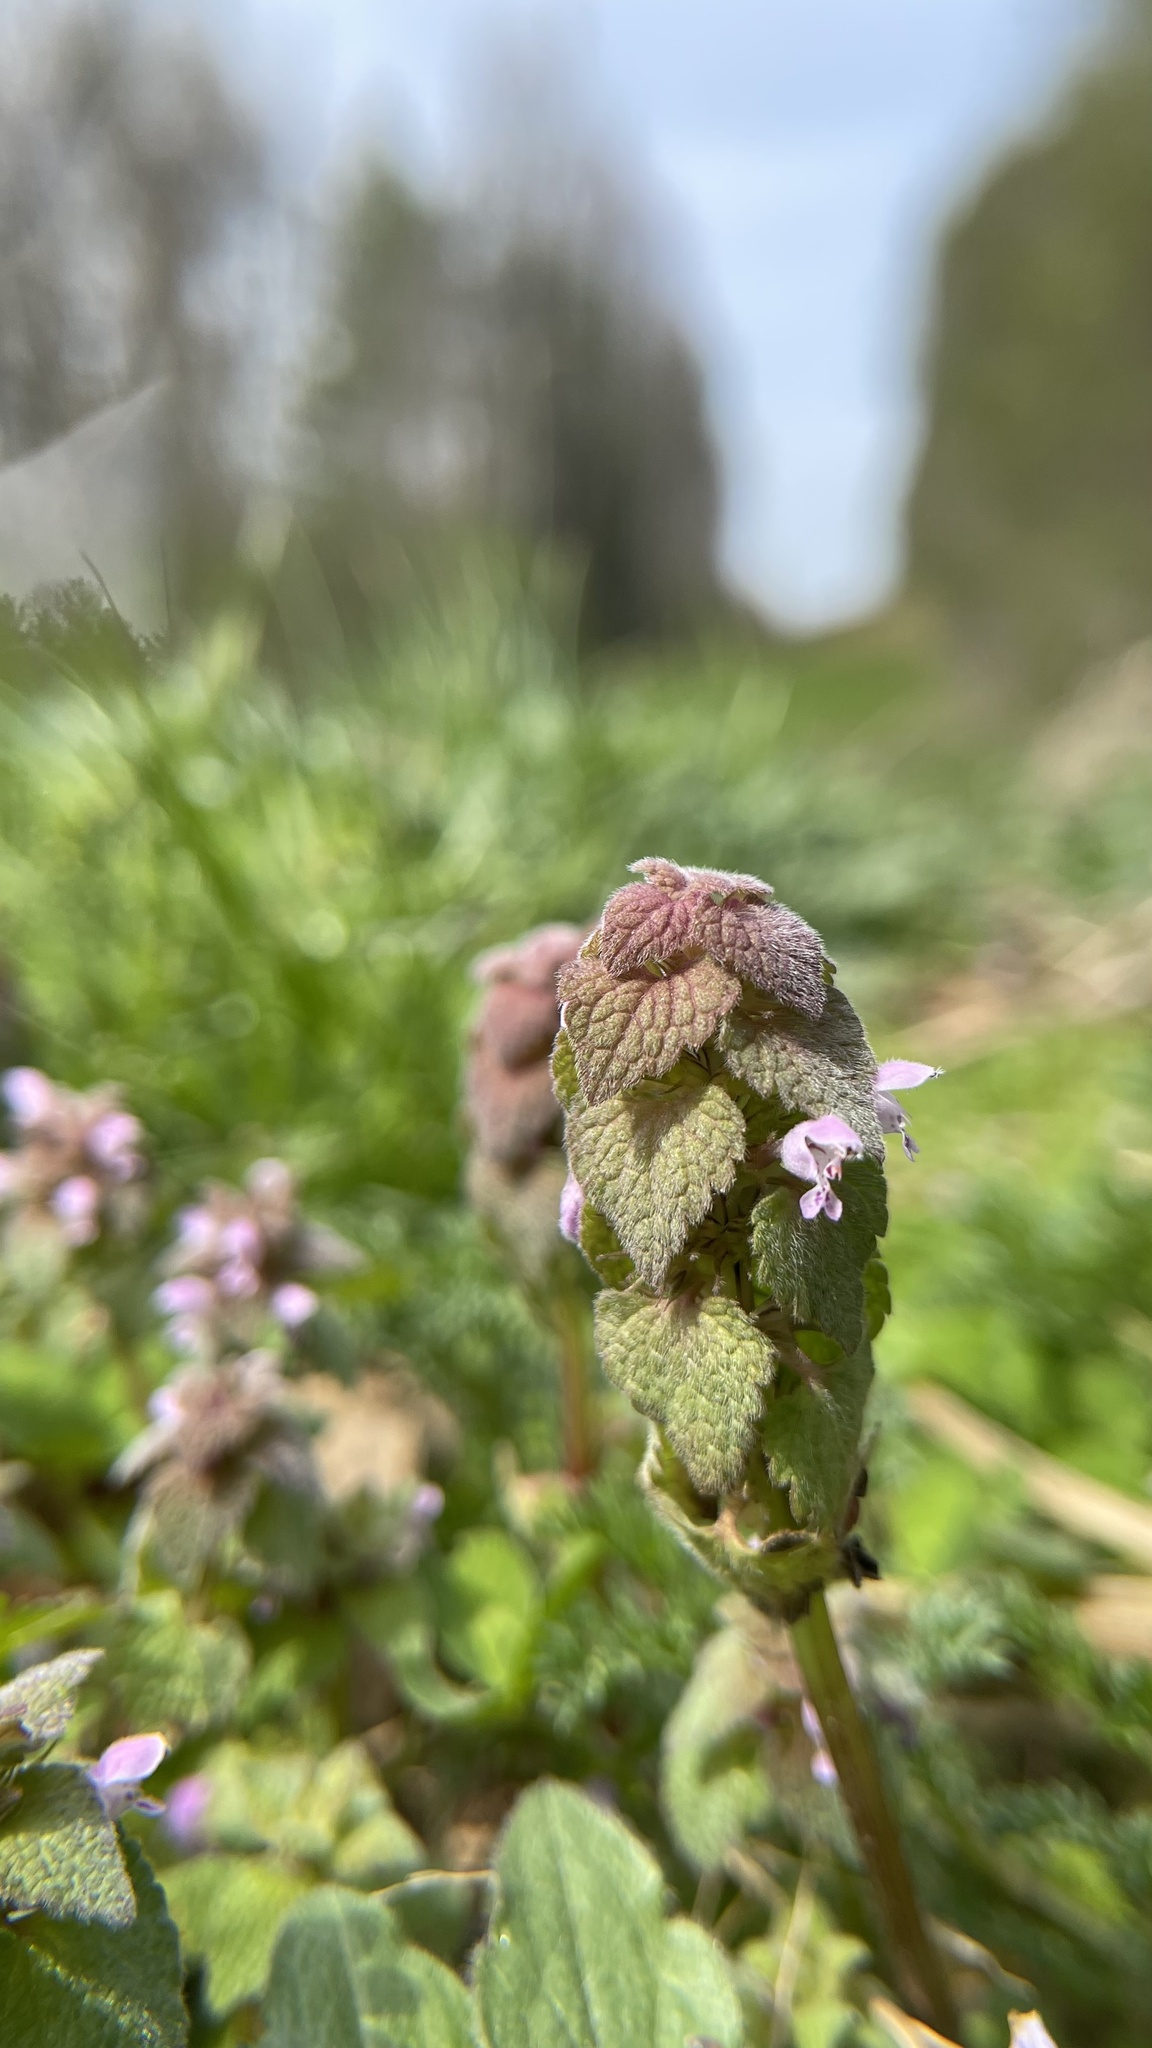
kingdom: Plantae
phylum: Tracheophyta
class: Magnoliopsida
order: Lamiales
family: Lamiaceae
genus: Lamium
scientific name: Lamium purpureum
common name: Red dead-nettle
